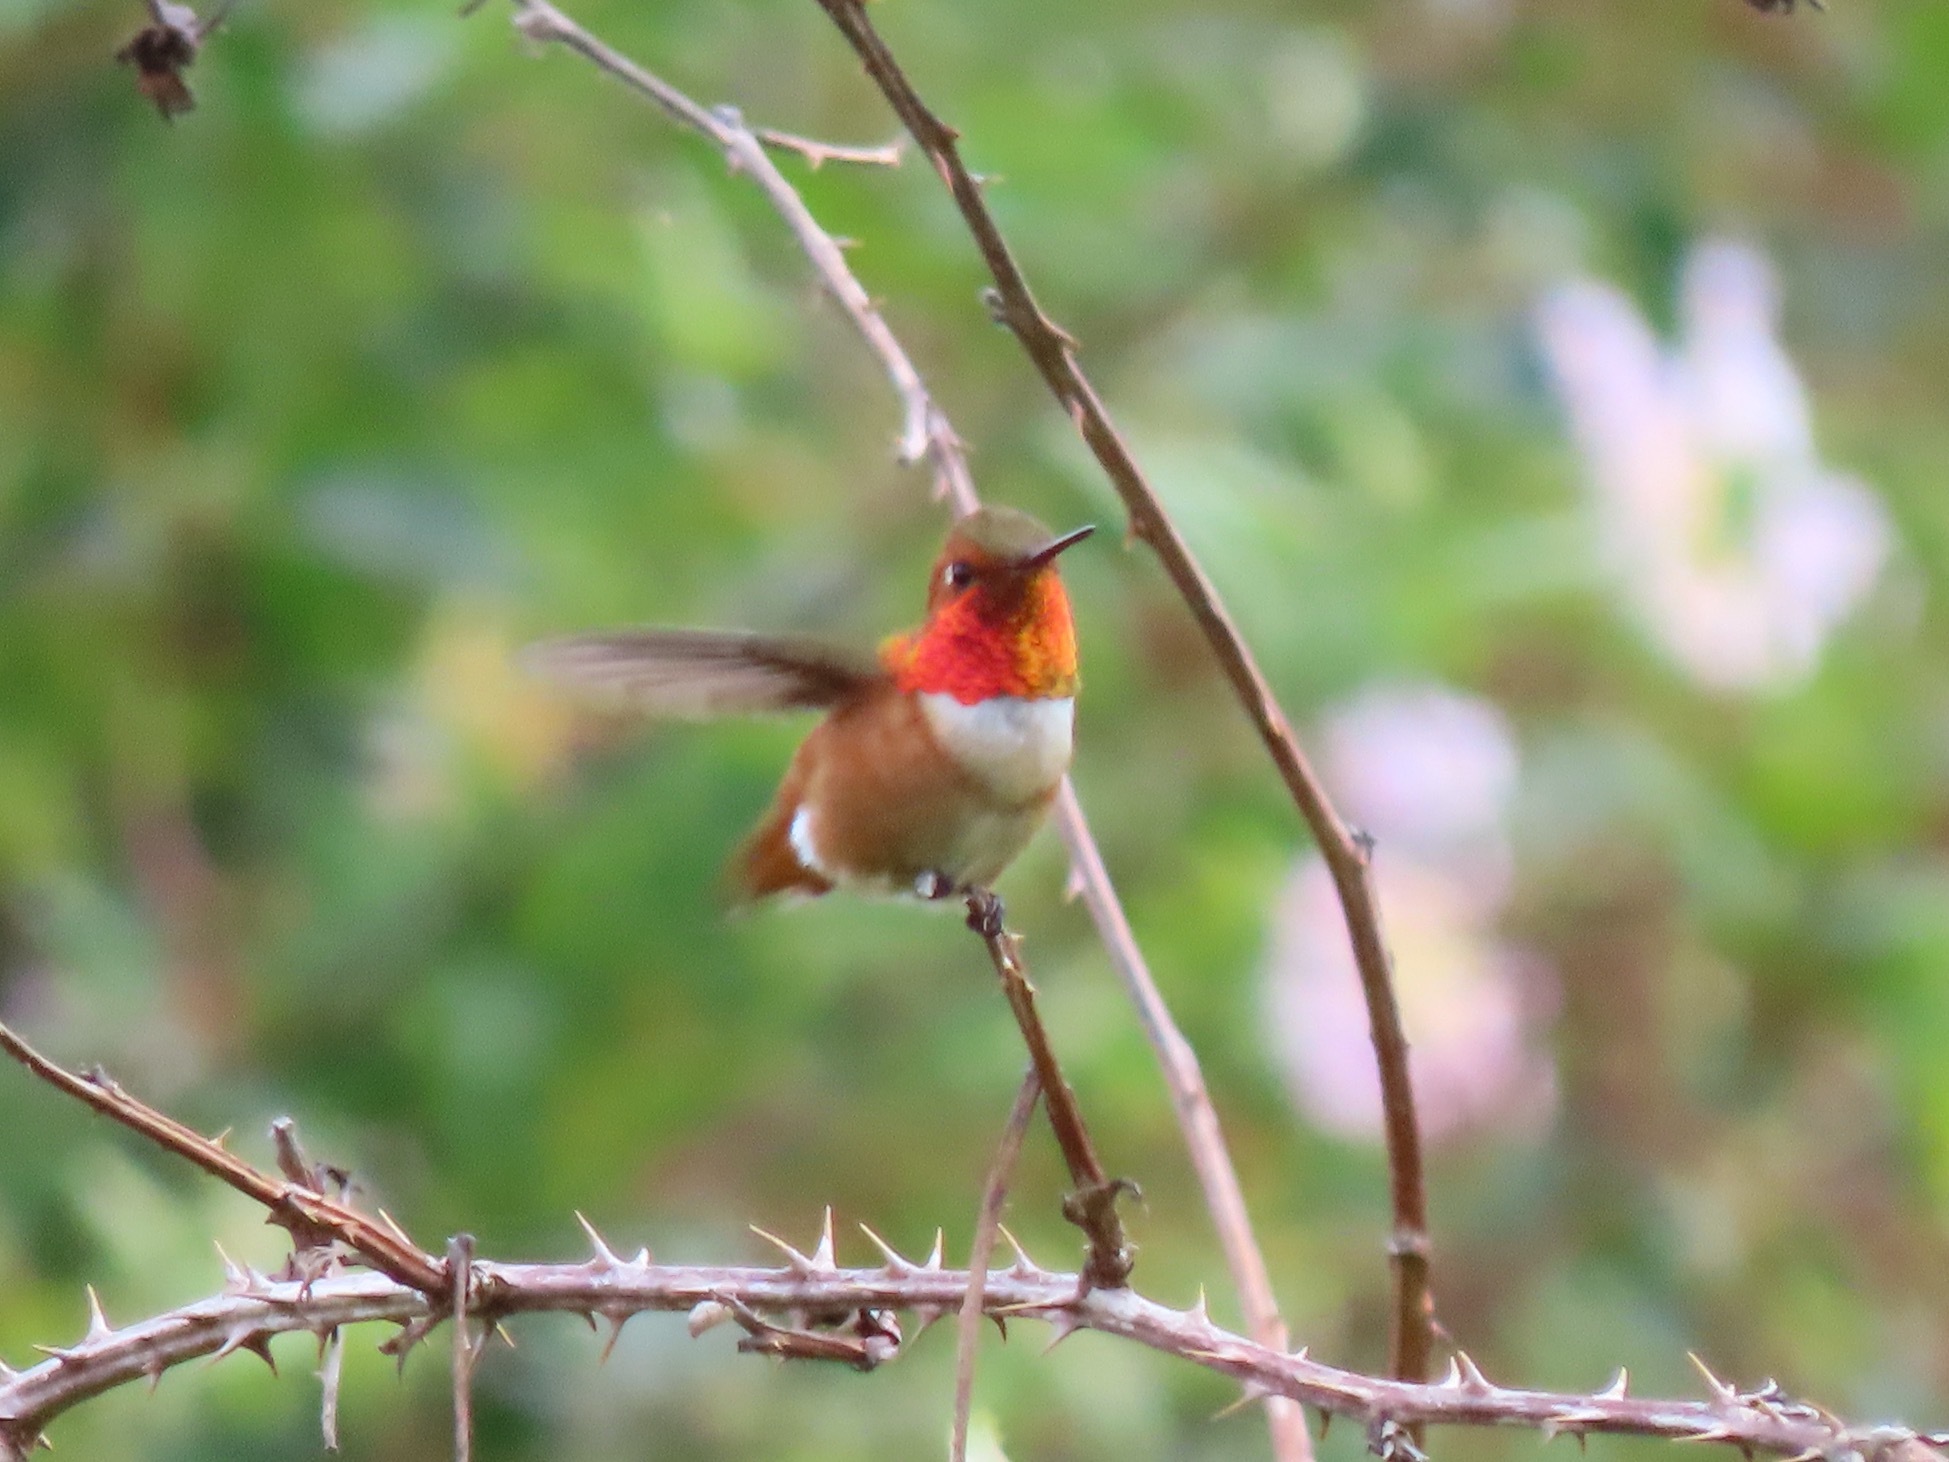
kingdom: Animalia
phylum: Chordata
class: Aves
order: Apodiformes
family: Trochilidae
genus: Selasphorus
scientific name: Selasphorus rufus
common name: Rufous hummingbird
